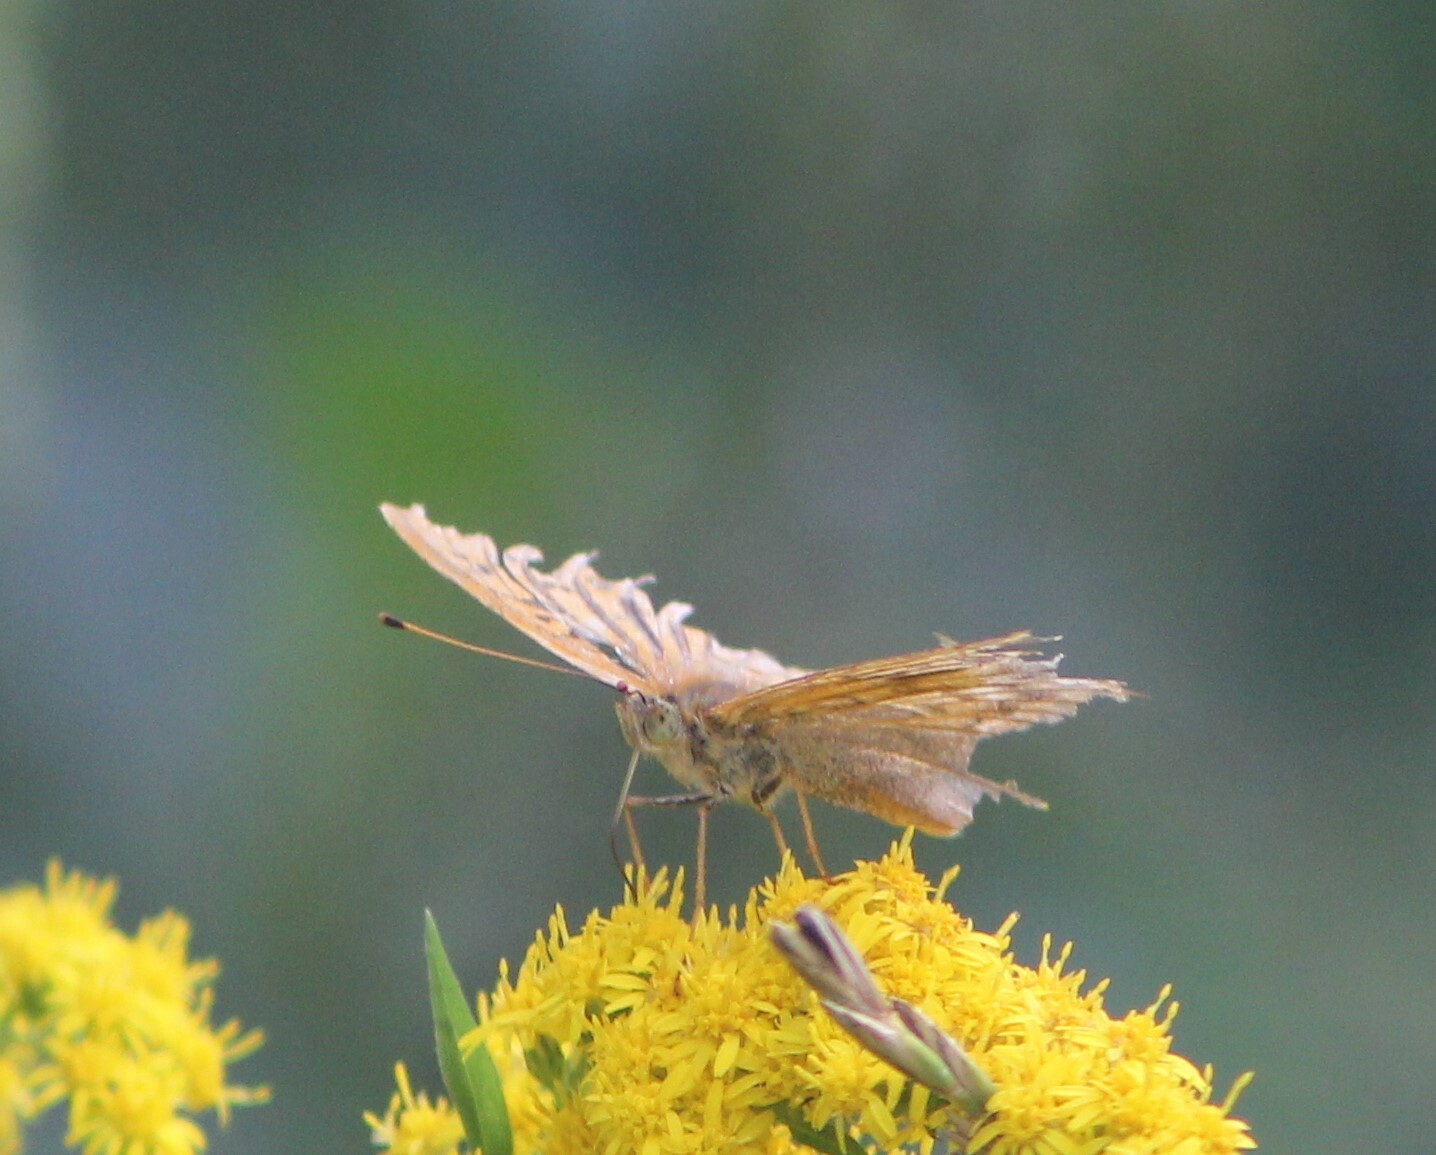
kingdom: Animalia
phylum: Arthropoda
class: Insecta
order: Lepidoptera
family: Nymphalidae
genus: Argynnis
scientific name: Argynnis paphia
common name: Silver-washed fritillary
